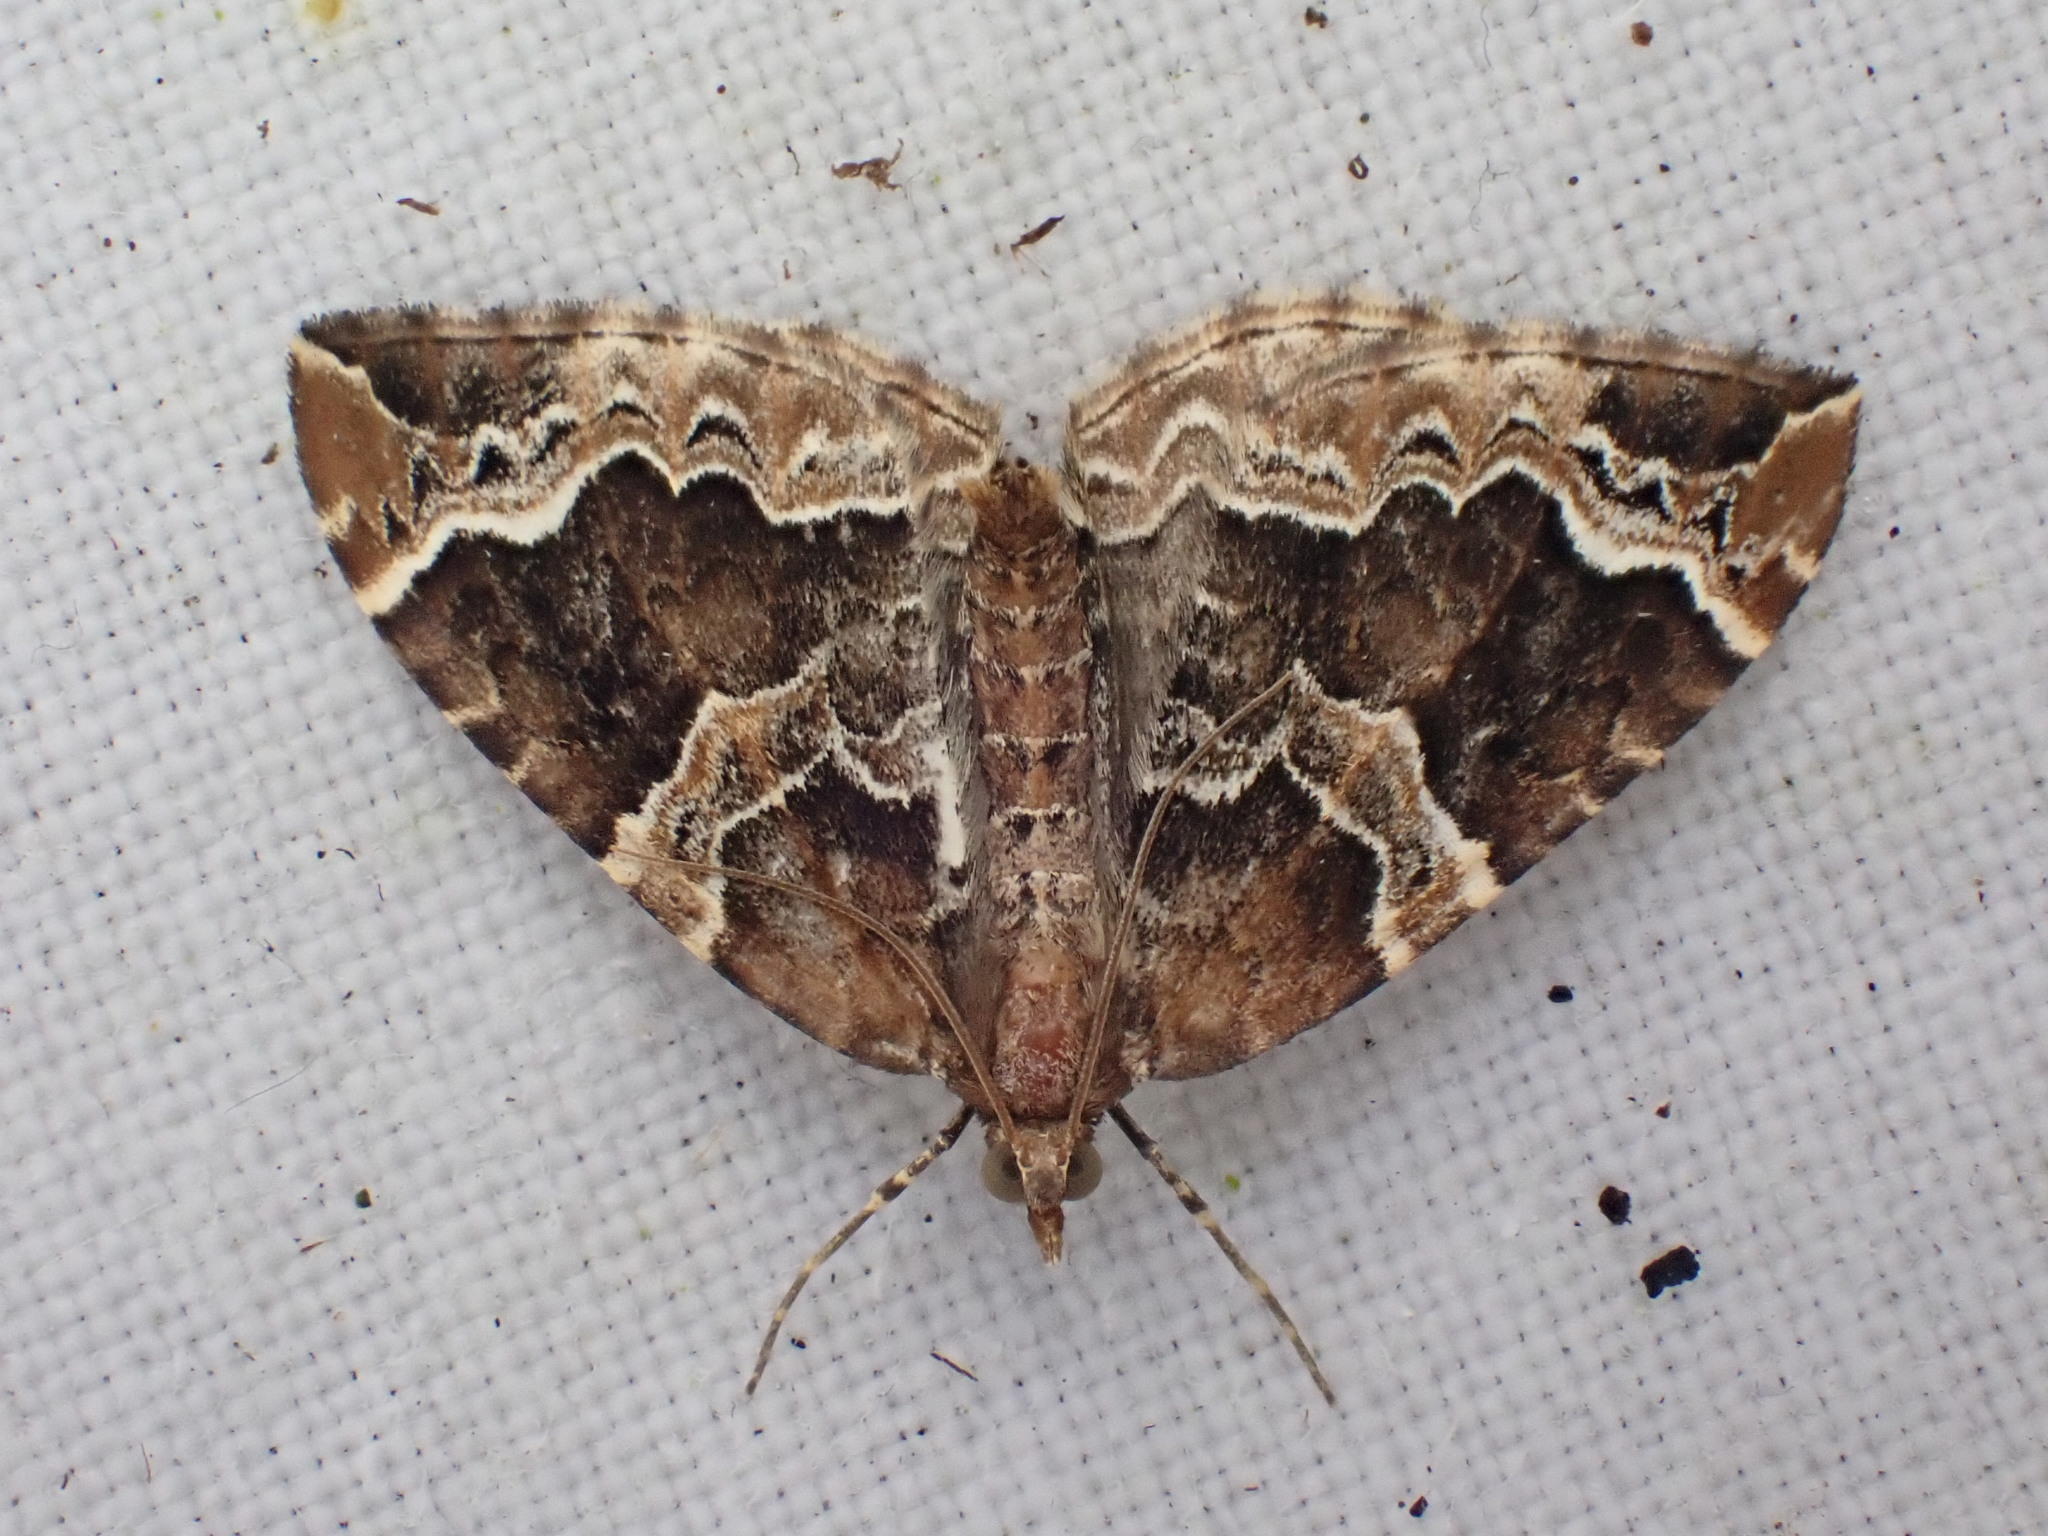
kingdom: Animalia
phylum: Arthropoda
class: Insecta
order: Lepidoptera
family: Geometridae
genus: Eulithis
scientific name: Eulithis prunata
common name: Phoenix
